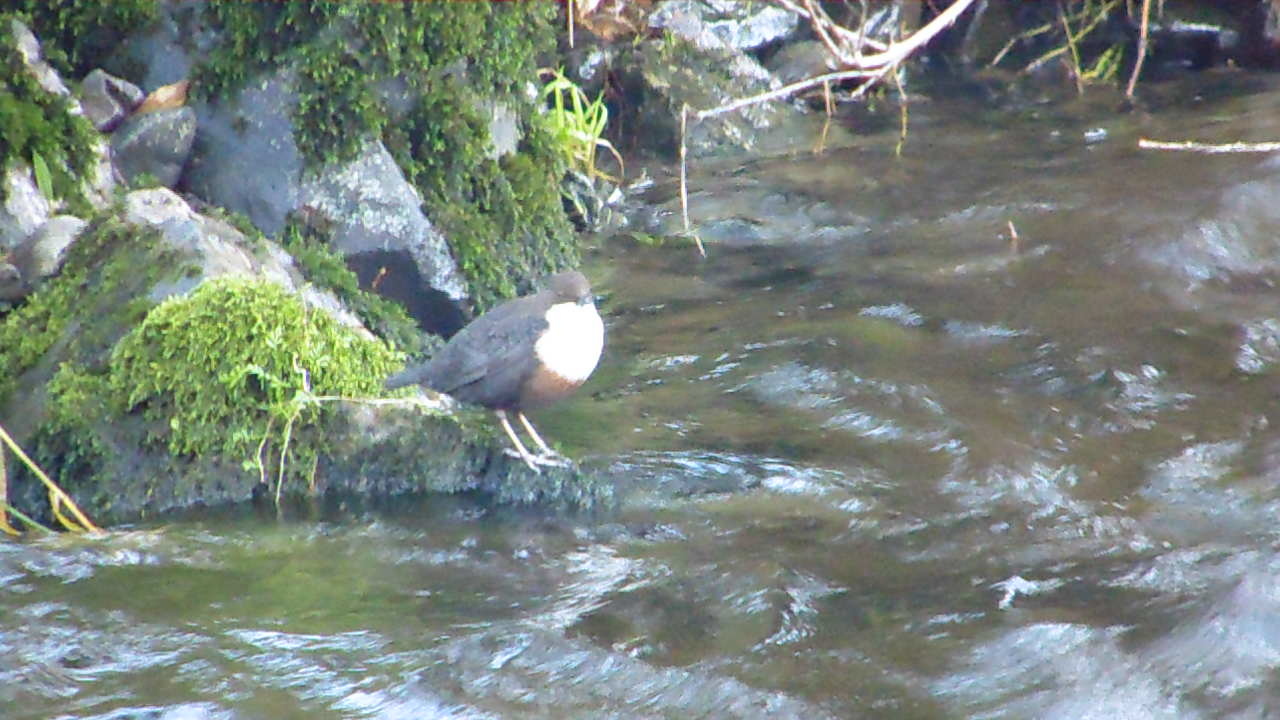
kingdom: Animalia
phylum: Chordata
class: Aves
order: Passeriformes
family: Cinclidae
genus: Cinclus
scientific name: Cinclus cinclus
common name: White-throated dipper
